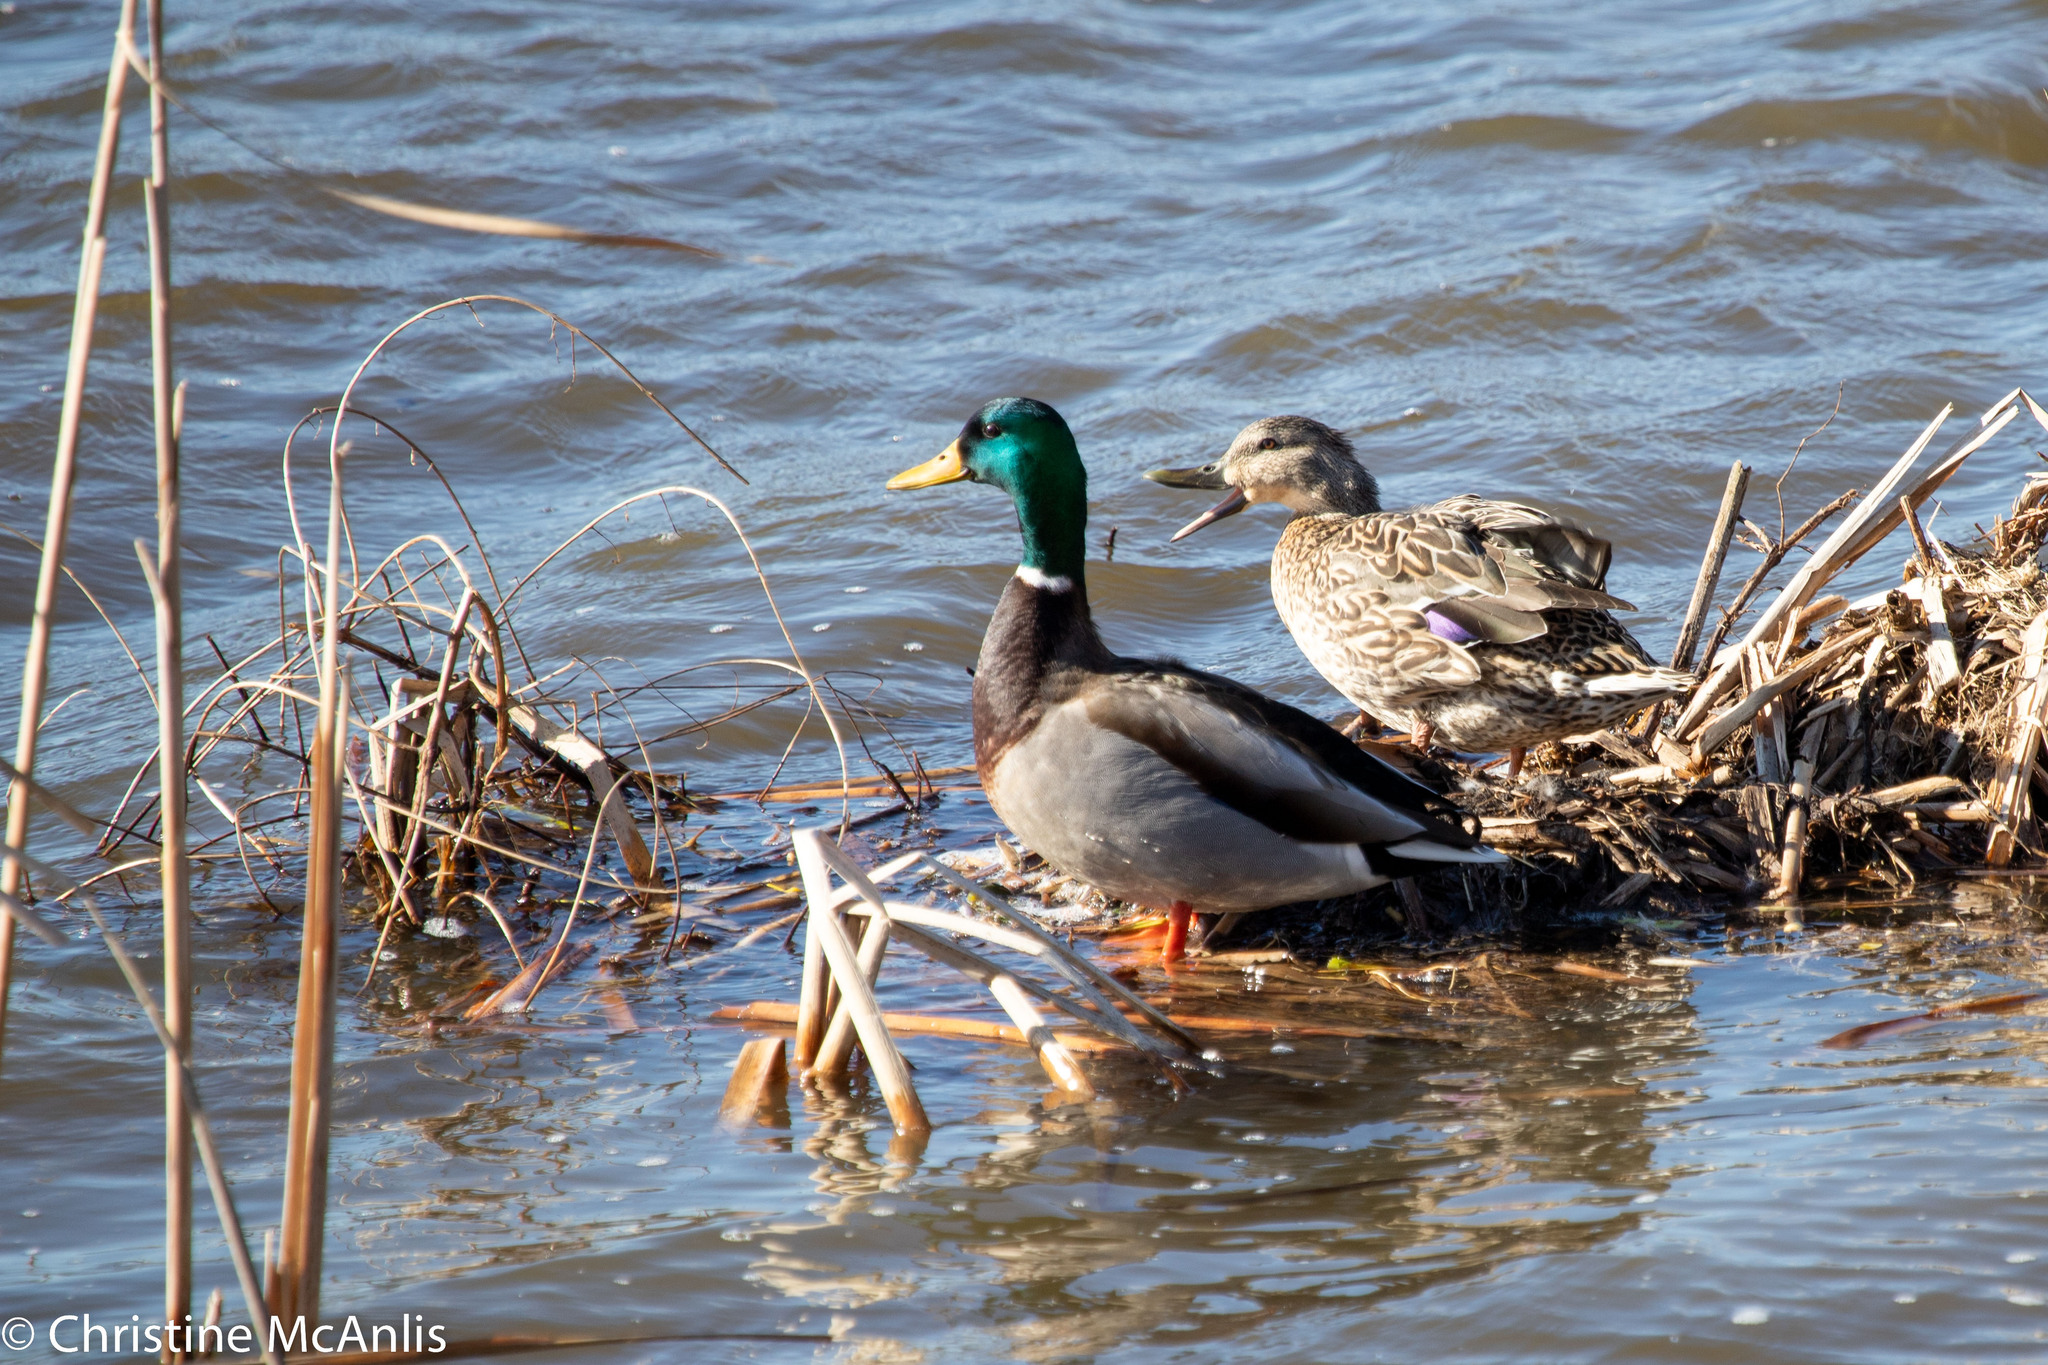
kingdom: Animalia
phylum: Chordata
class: Aves
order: Anseriformes
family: Anatidae
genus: Anas
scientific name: Anas platyrhynchos
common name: Mallard
